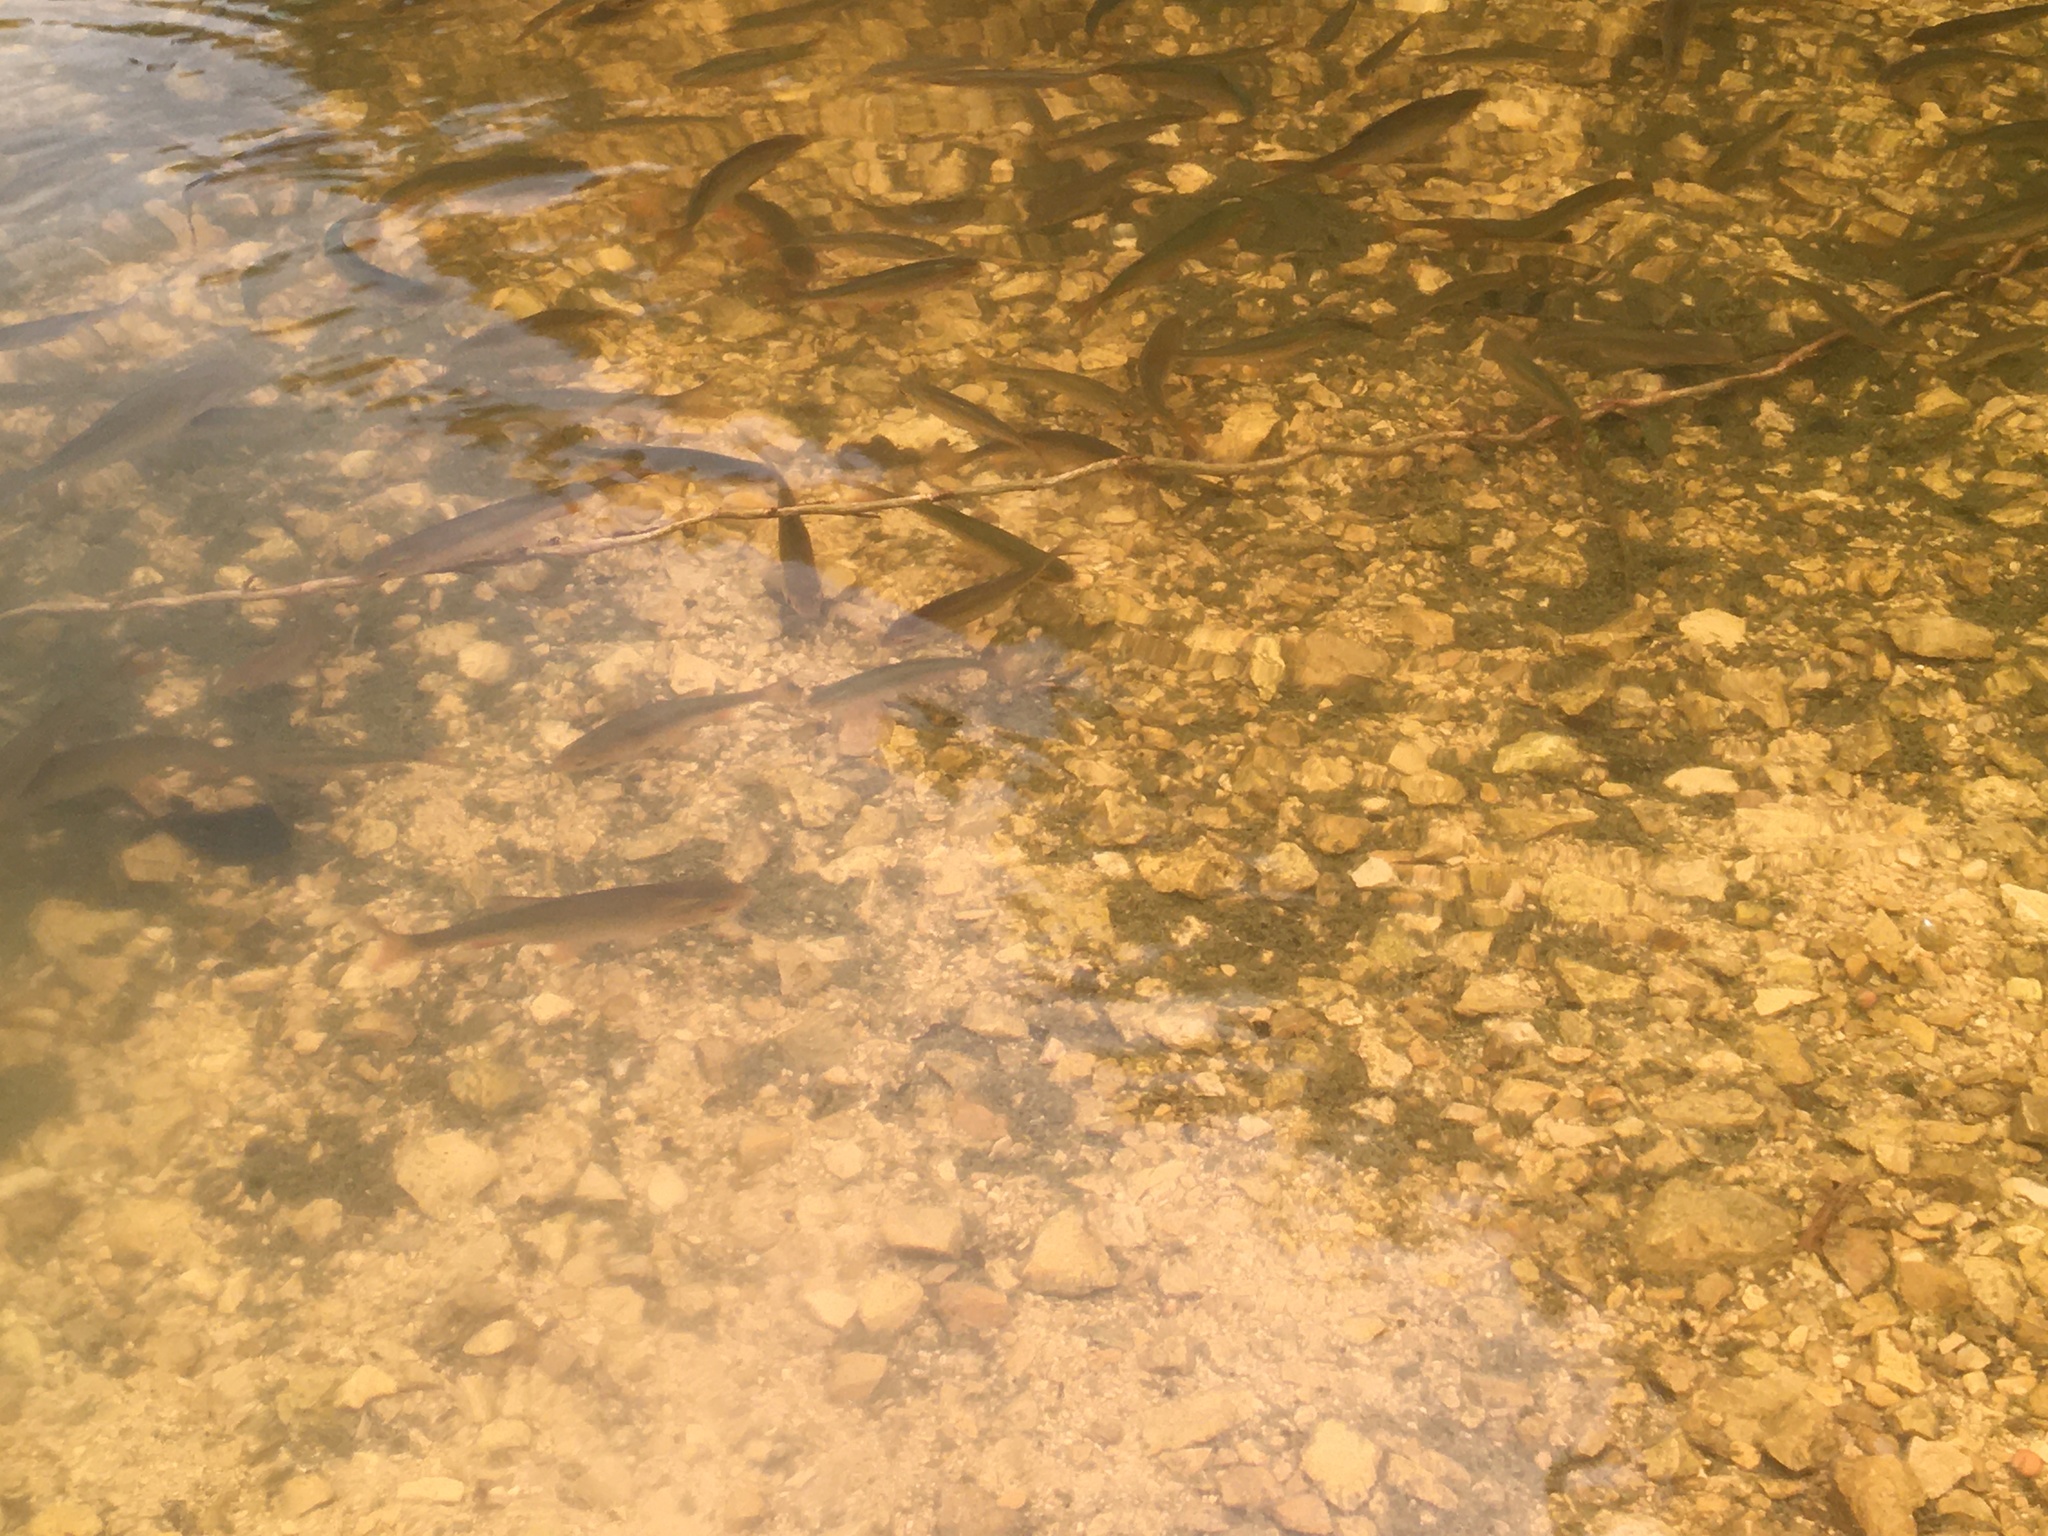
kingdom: Animalia
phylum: Chordata
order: Cypriniformes
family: Cyprinidae
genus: Rutilus
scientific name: Rutilus rutilus
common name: Roach
